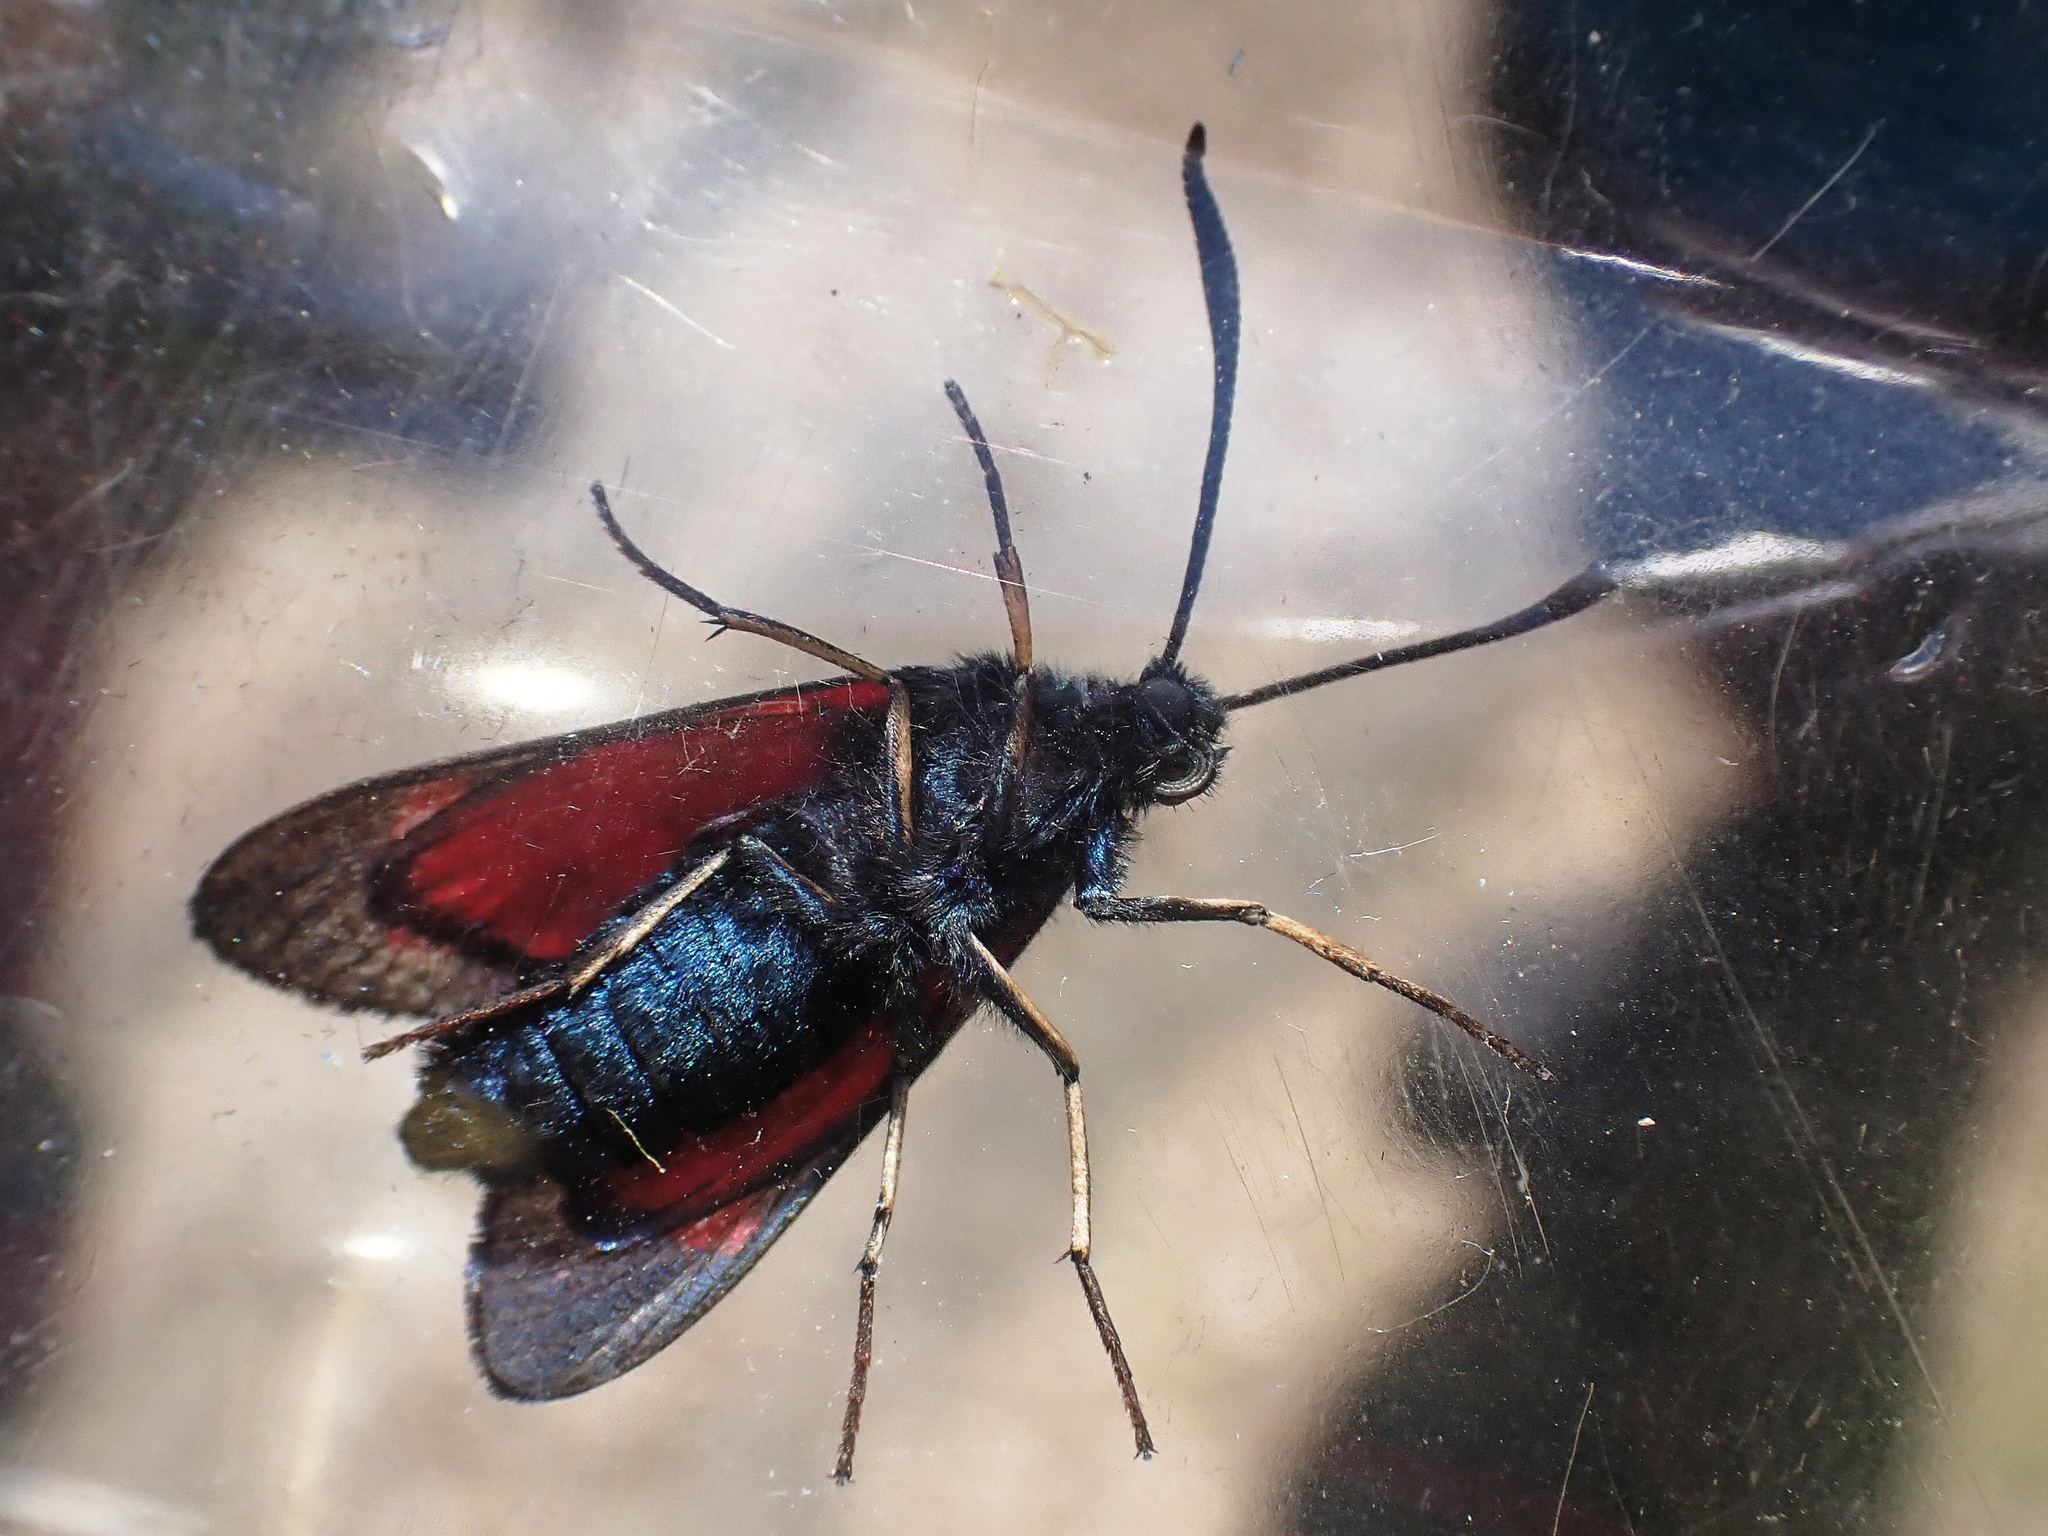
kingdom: Animalia
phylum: Arthropoda
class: Insecta
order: Lepidoptera
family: Zygaenidae
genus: Zygaena
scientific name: Zygaena filipendulae
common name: Six-spot burnet
